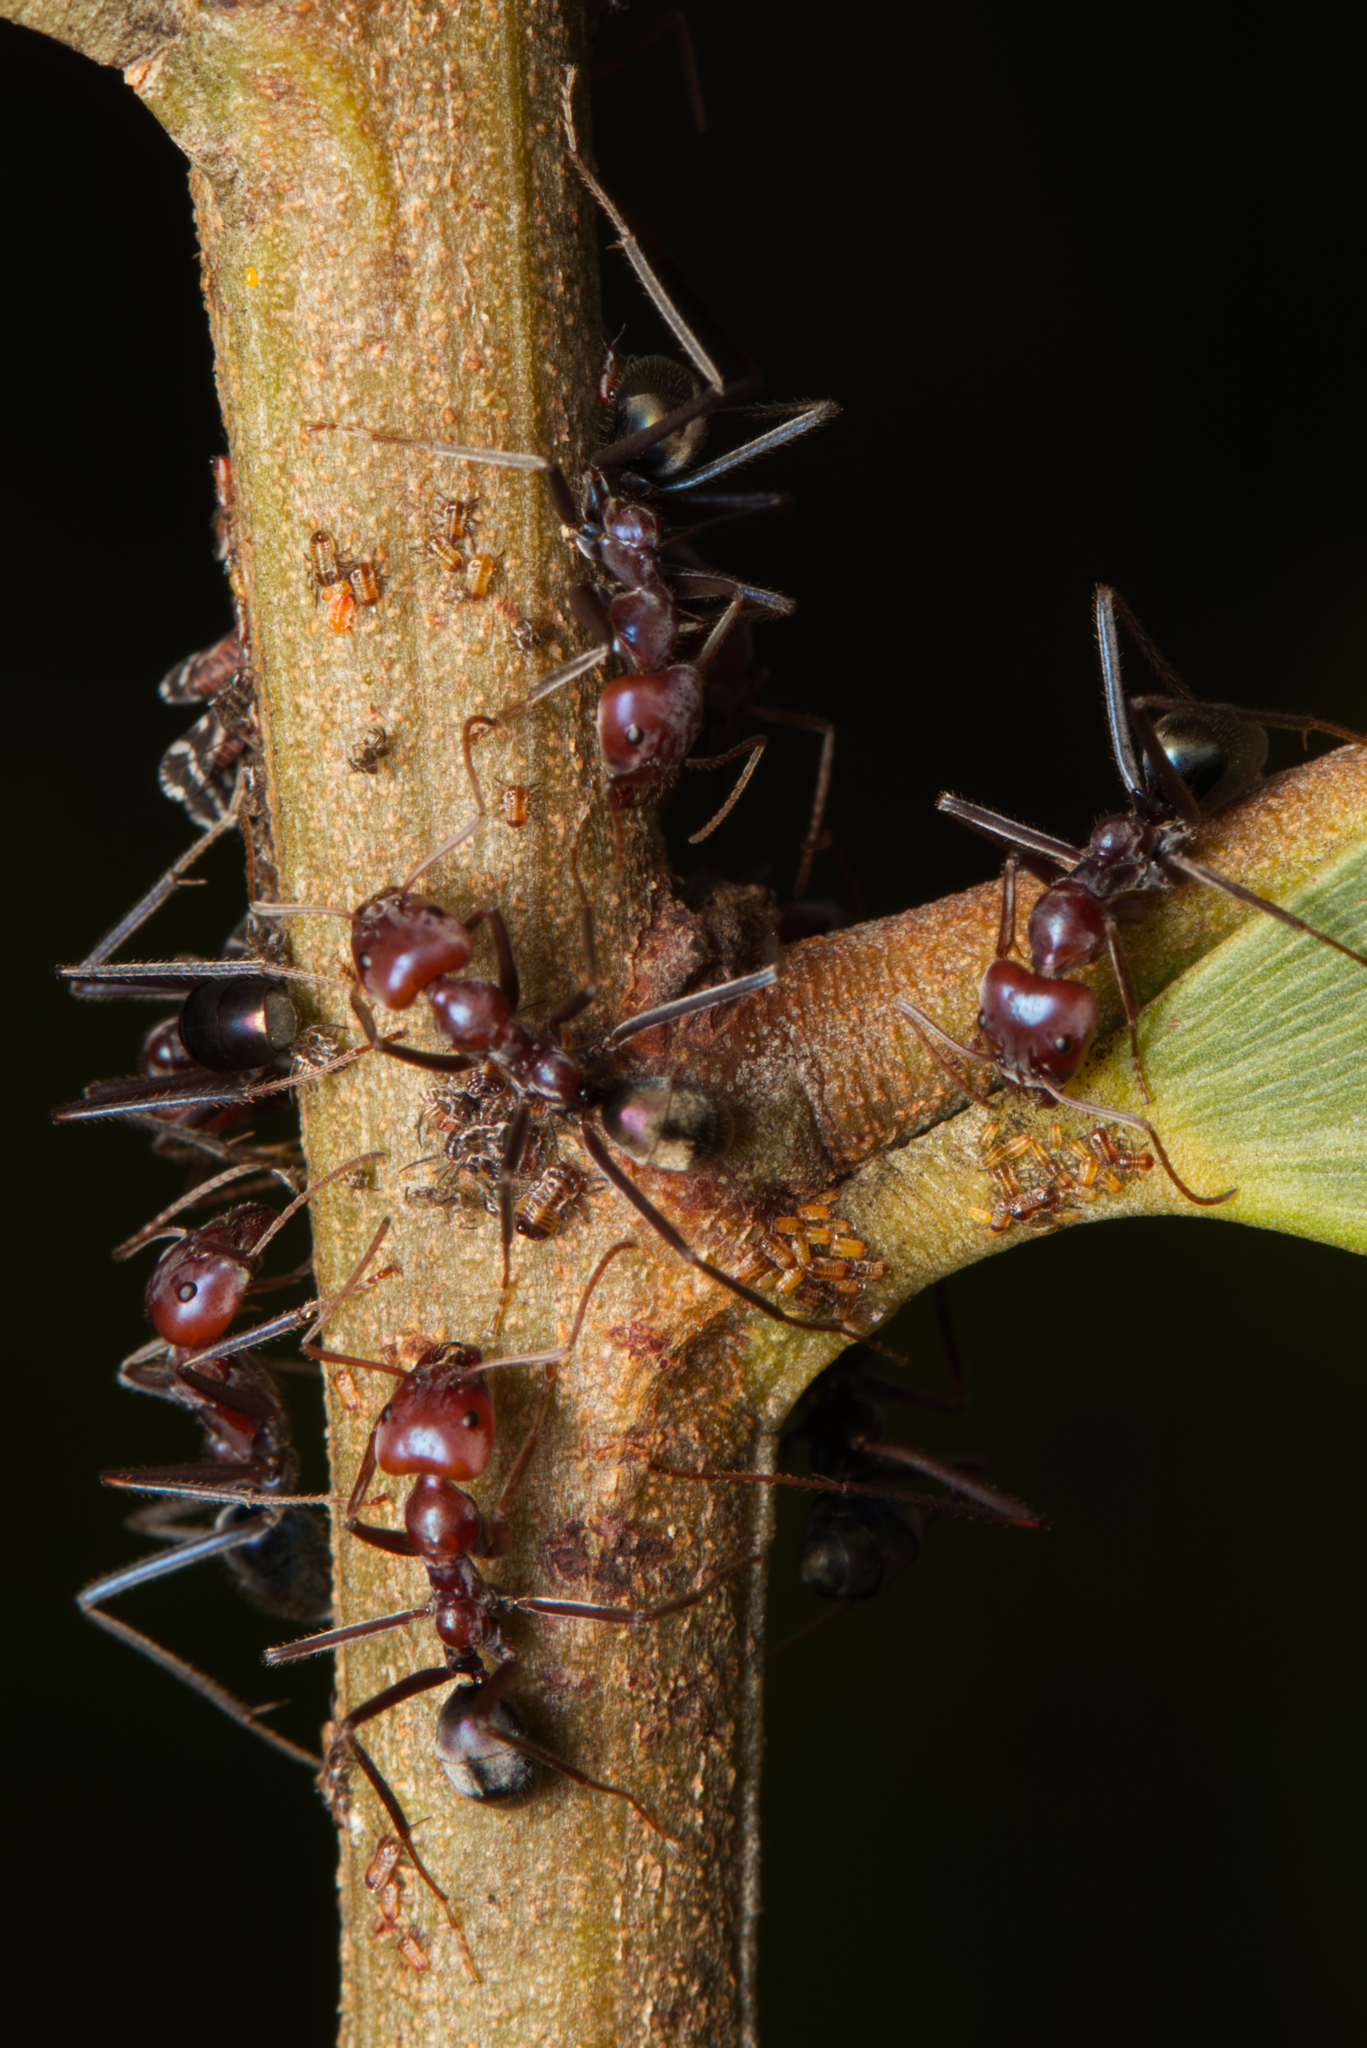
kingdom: Animalia
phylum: Arthropoda
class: Insecta
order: Hymenoptera
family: Formicidae
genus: Iridomyrmex
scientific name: Iridomyrmex purpureus
